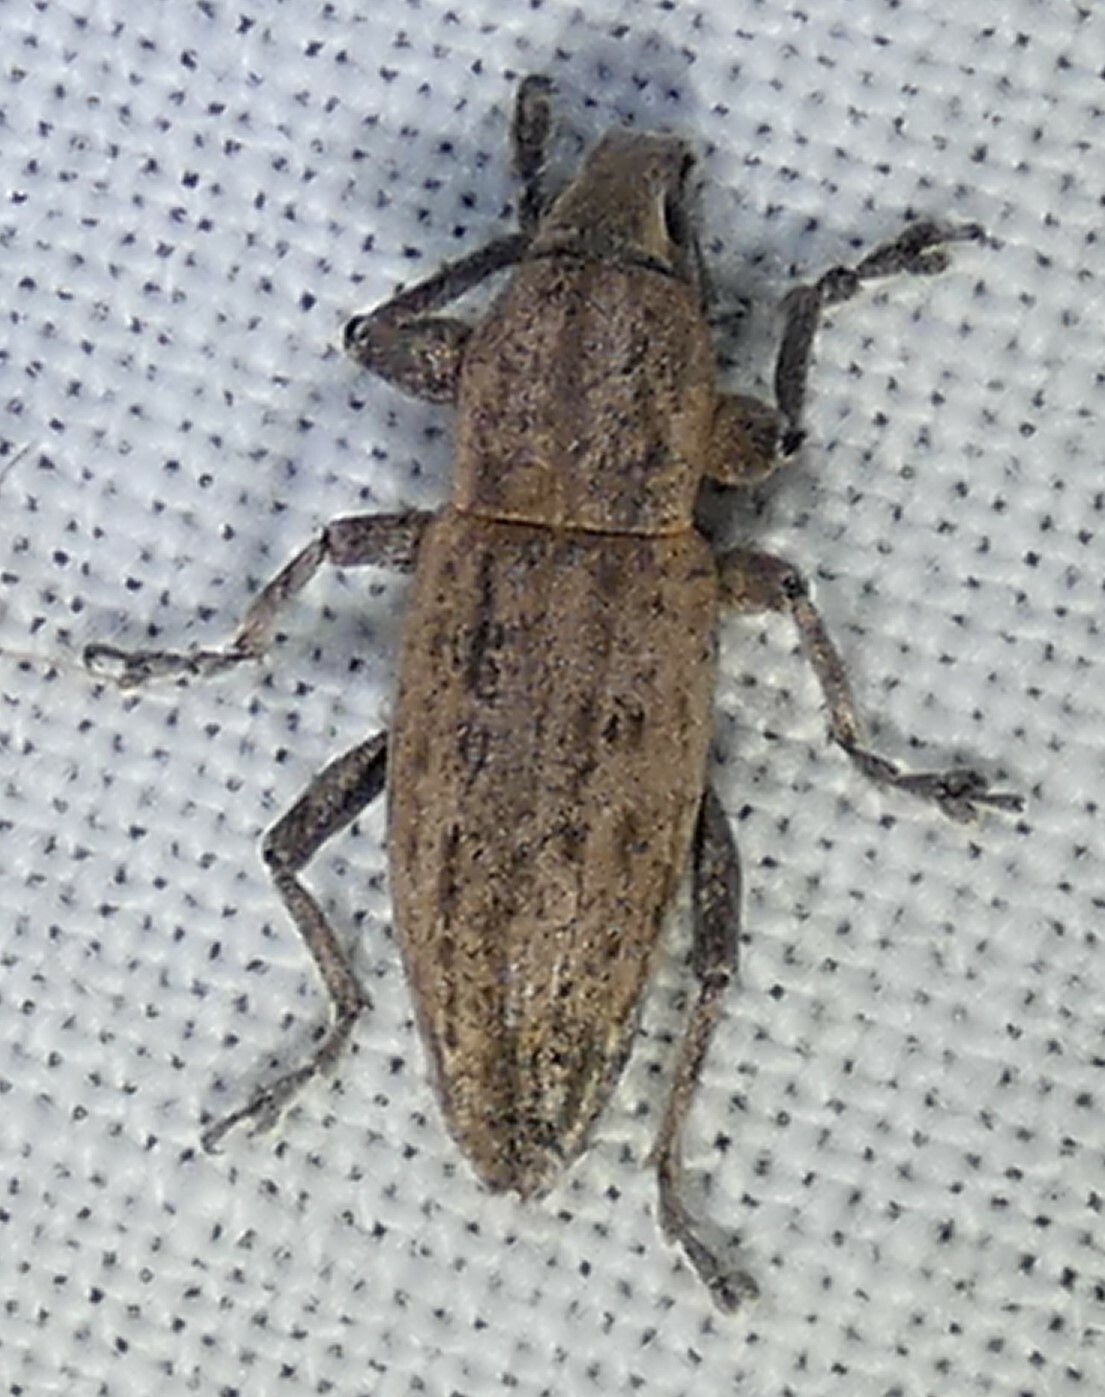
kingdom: Animalia
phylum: Arthropoda
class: Insecta
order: Coleoptera
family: Curculionidae
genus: Tanymecus
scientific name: Tanymecus lacaena
